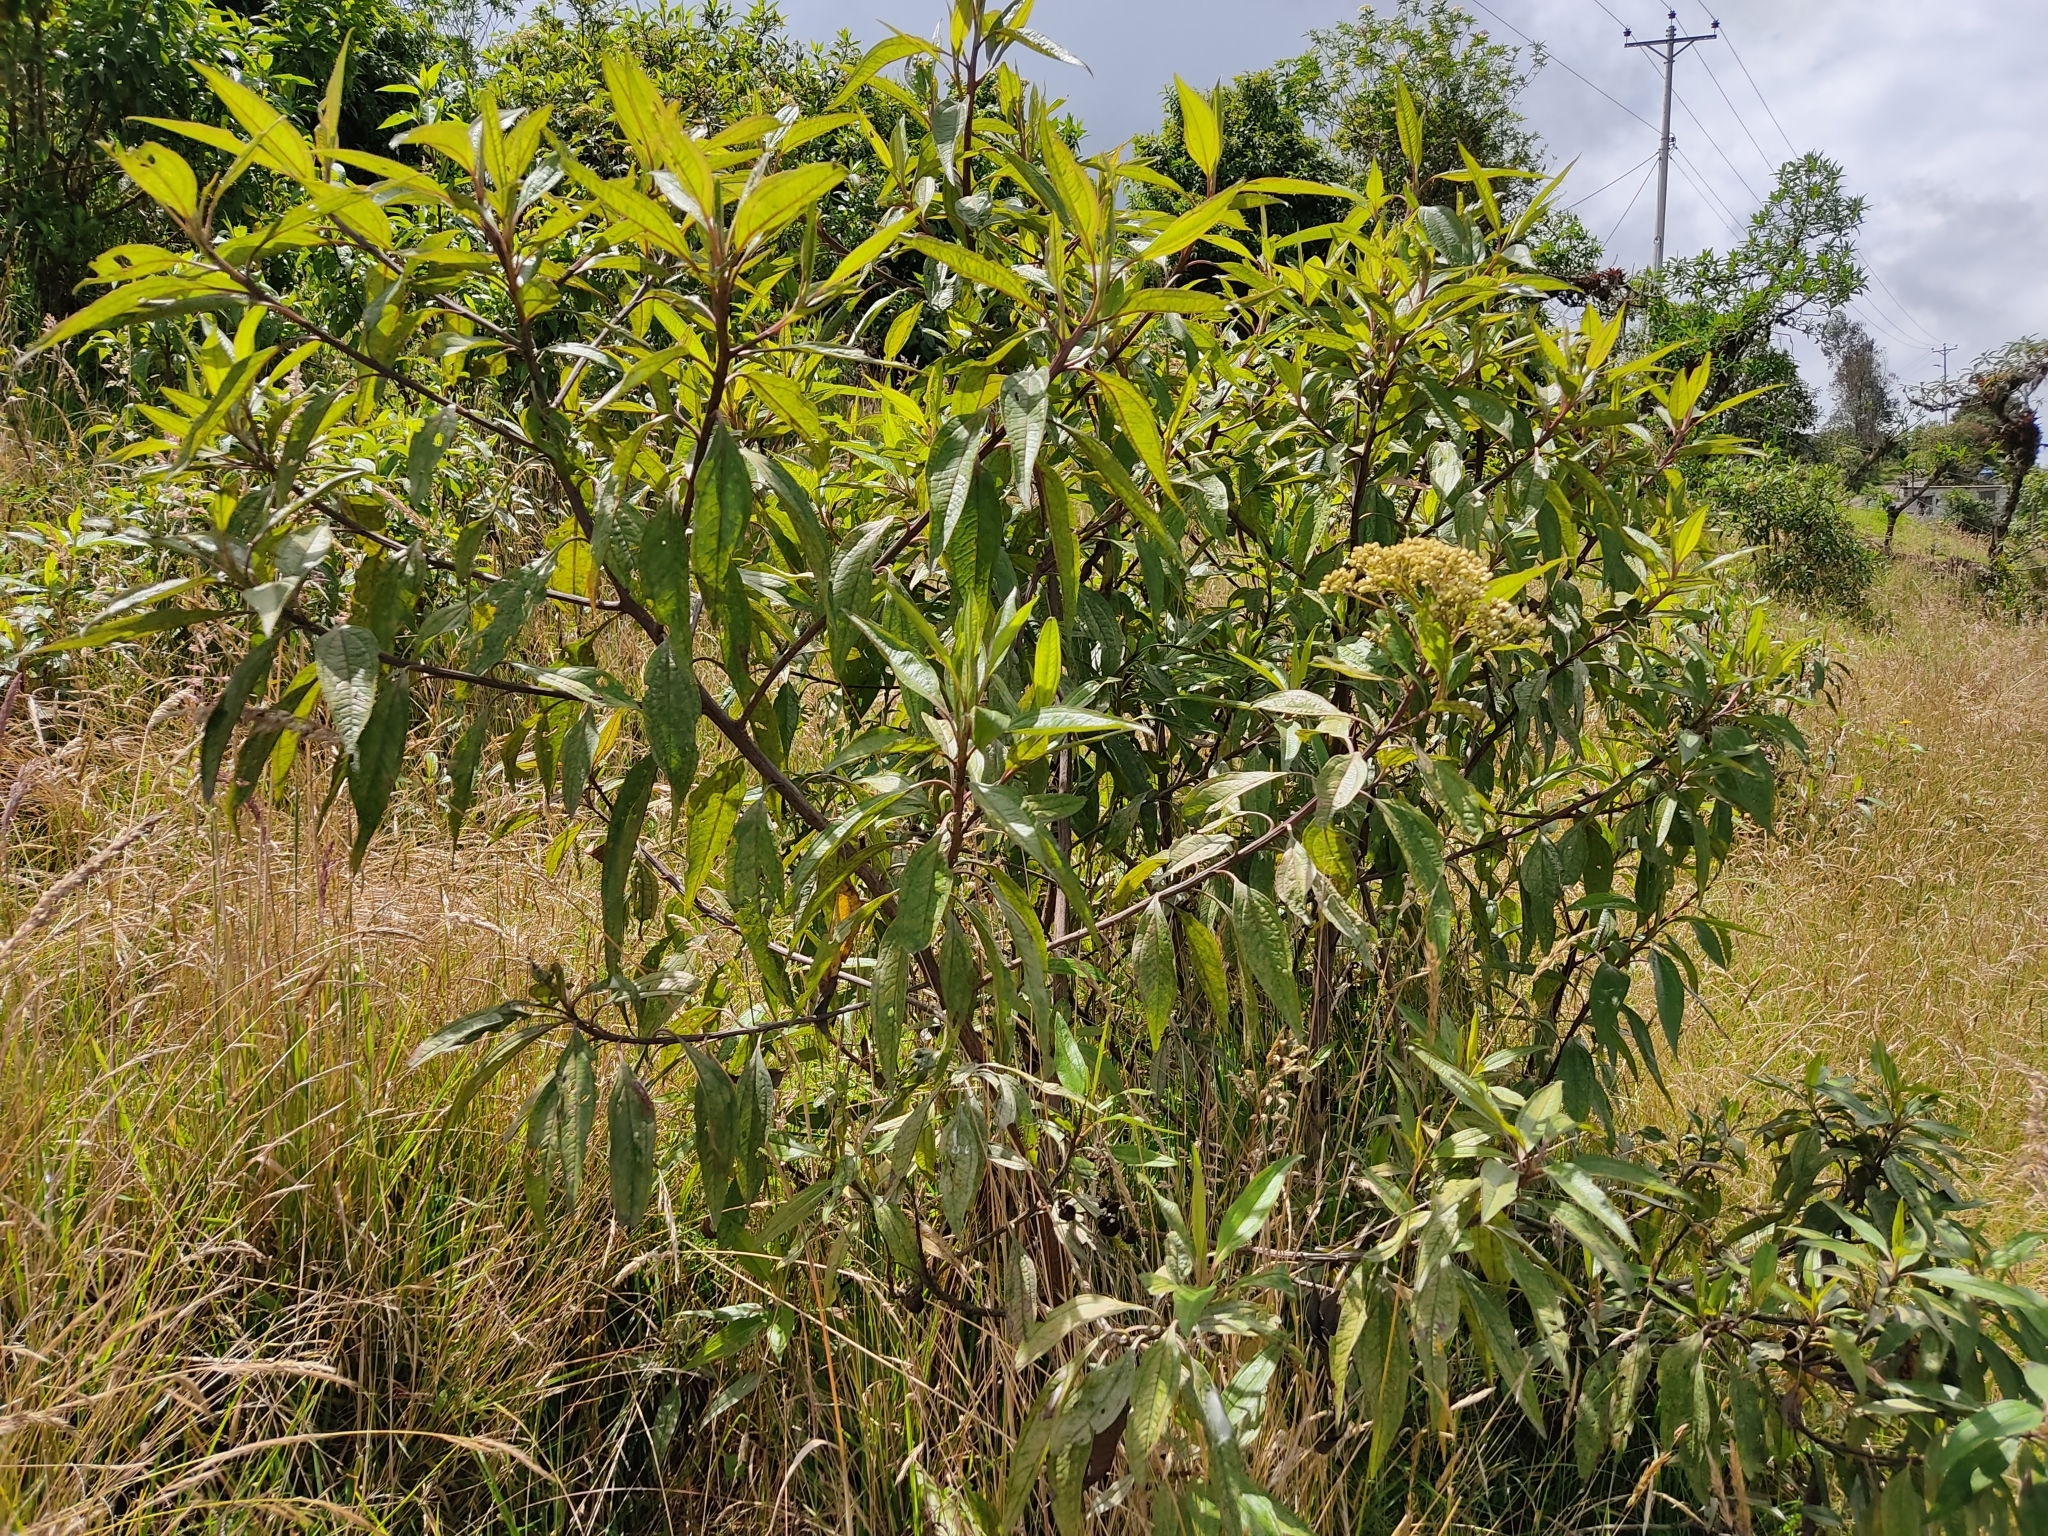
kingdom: Plantae
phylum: Tracheophyta
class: Magnoliopsida
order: Asterales
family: Asteraceae
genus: Baccharis
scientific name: Baccharis latifolia
